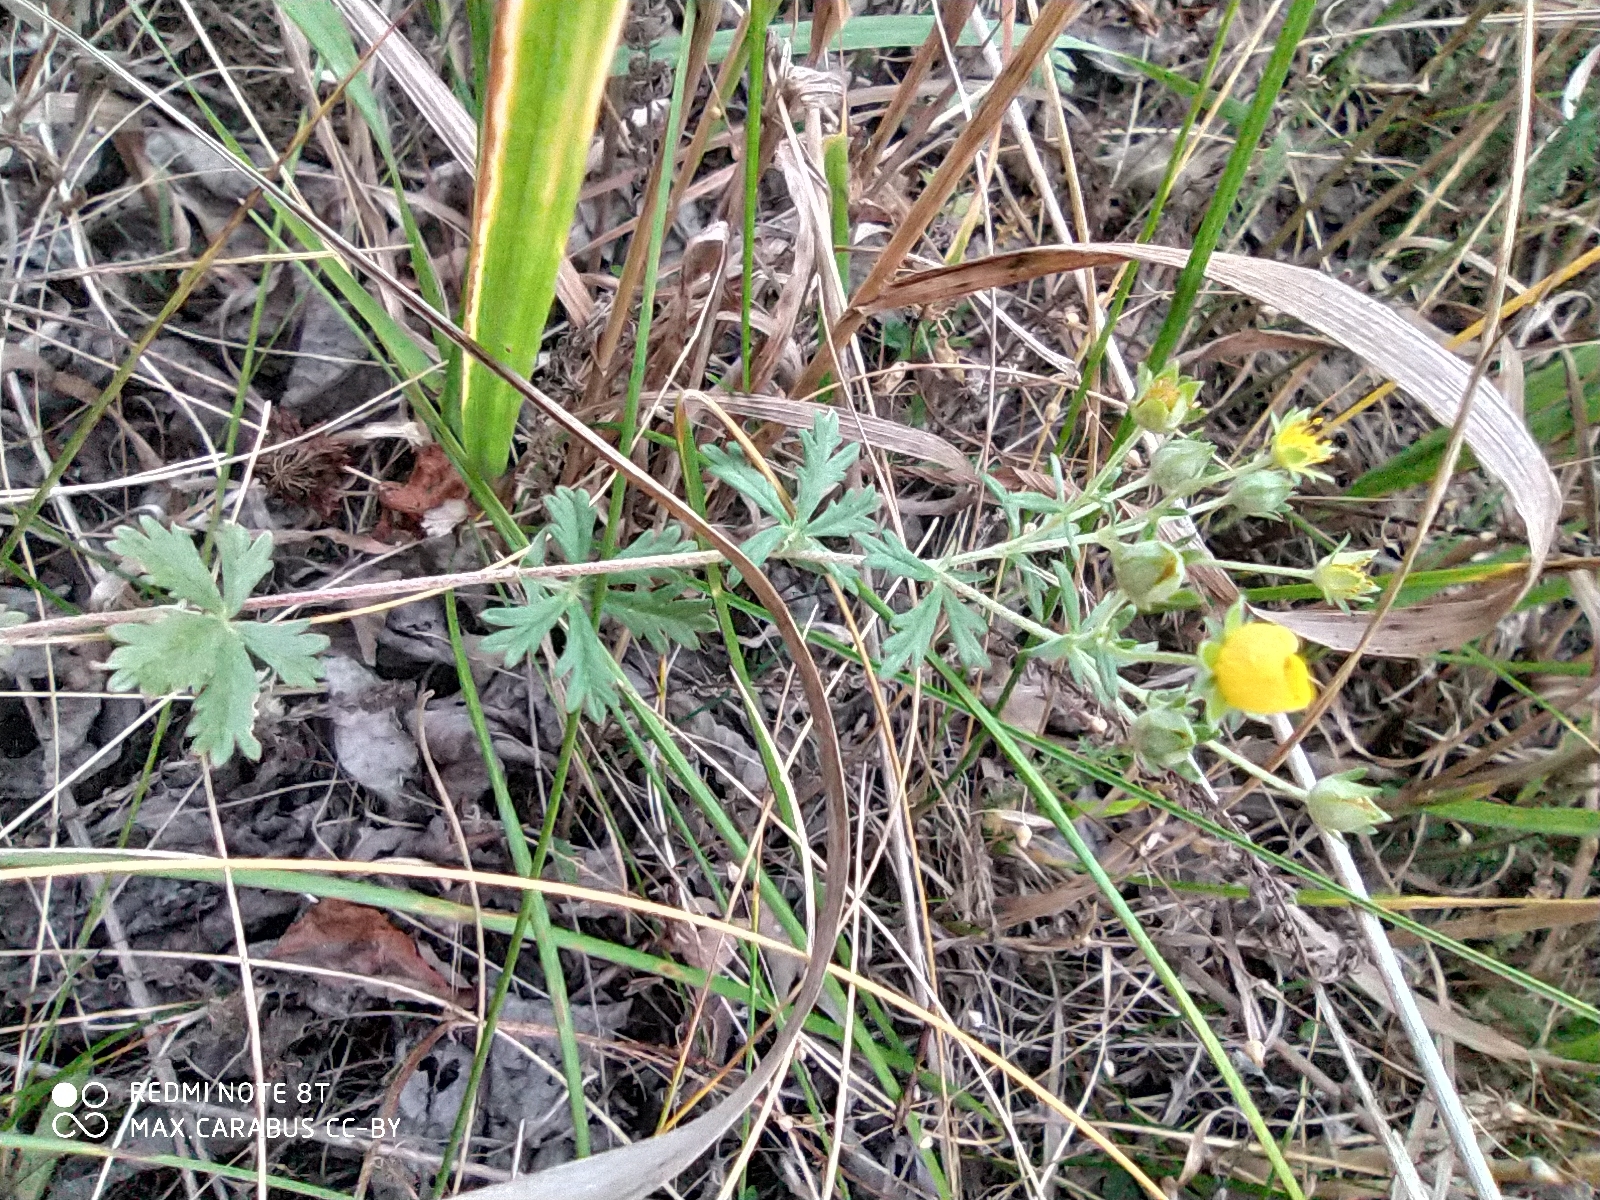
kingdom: Plantae
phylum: Tracheophyta
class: Magnoliopsida
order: Rosales
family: Rosaceae
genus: Potentilla
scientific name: Potentilla argentea
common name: Hoary cinquefoil
